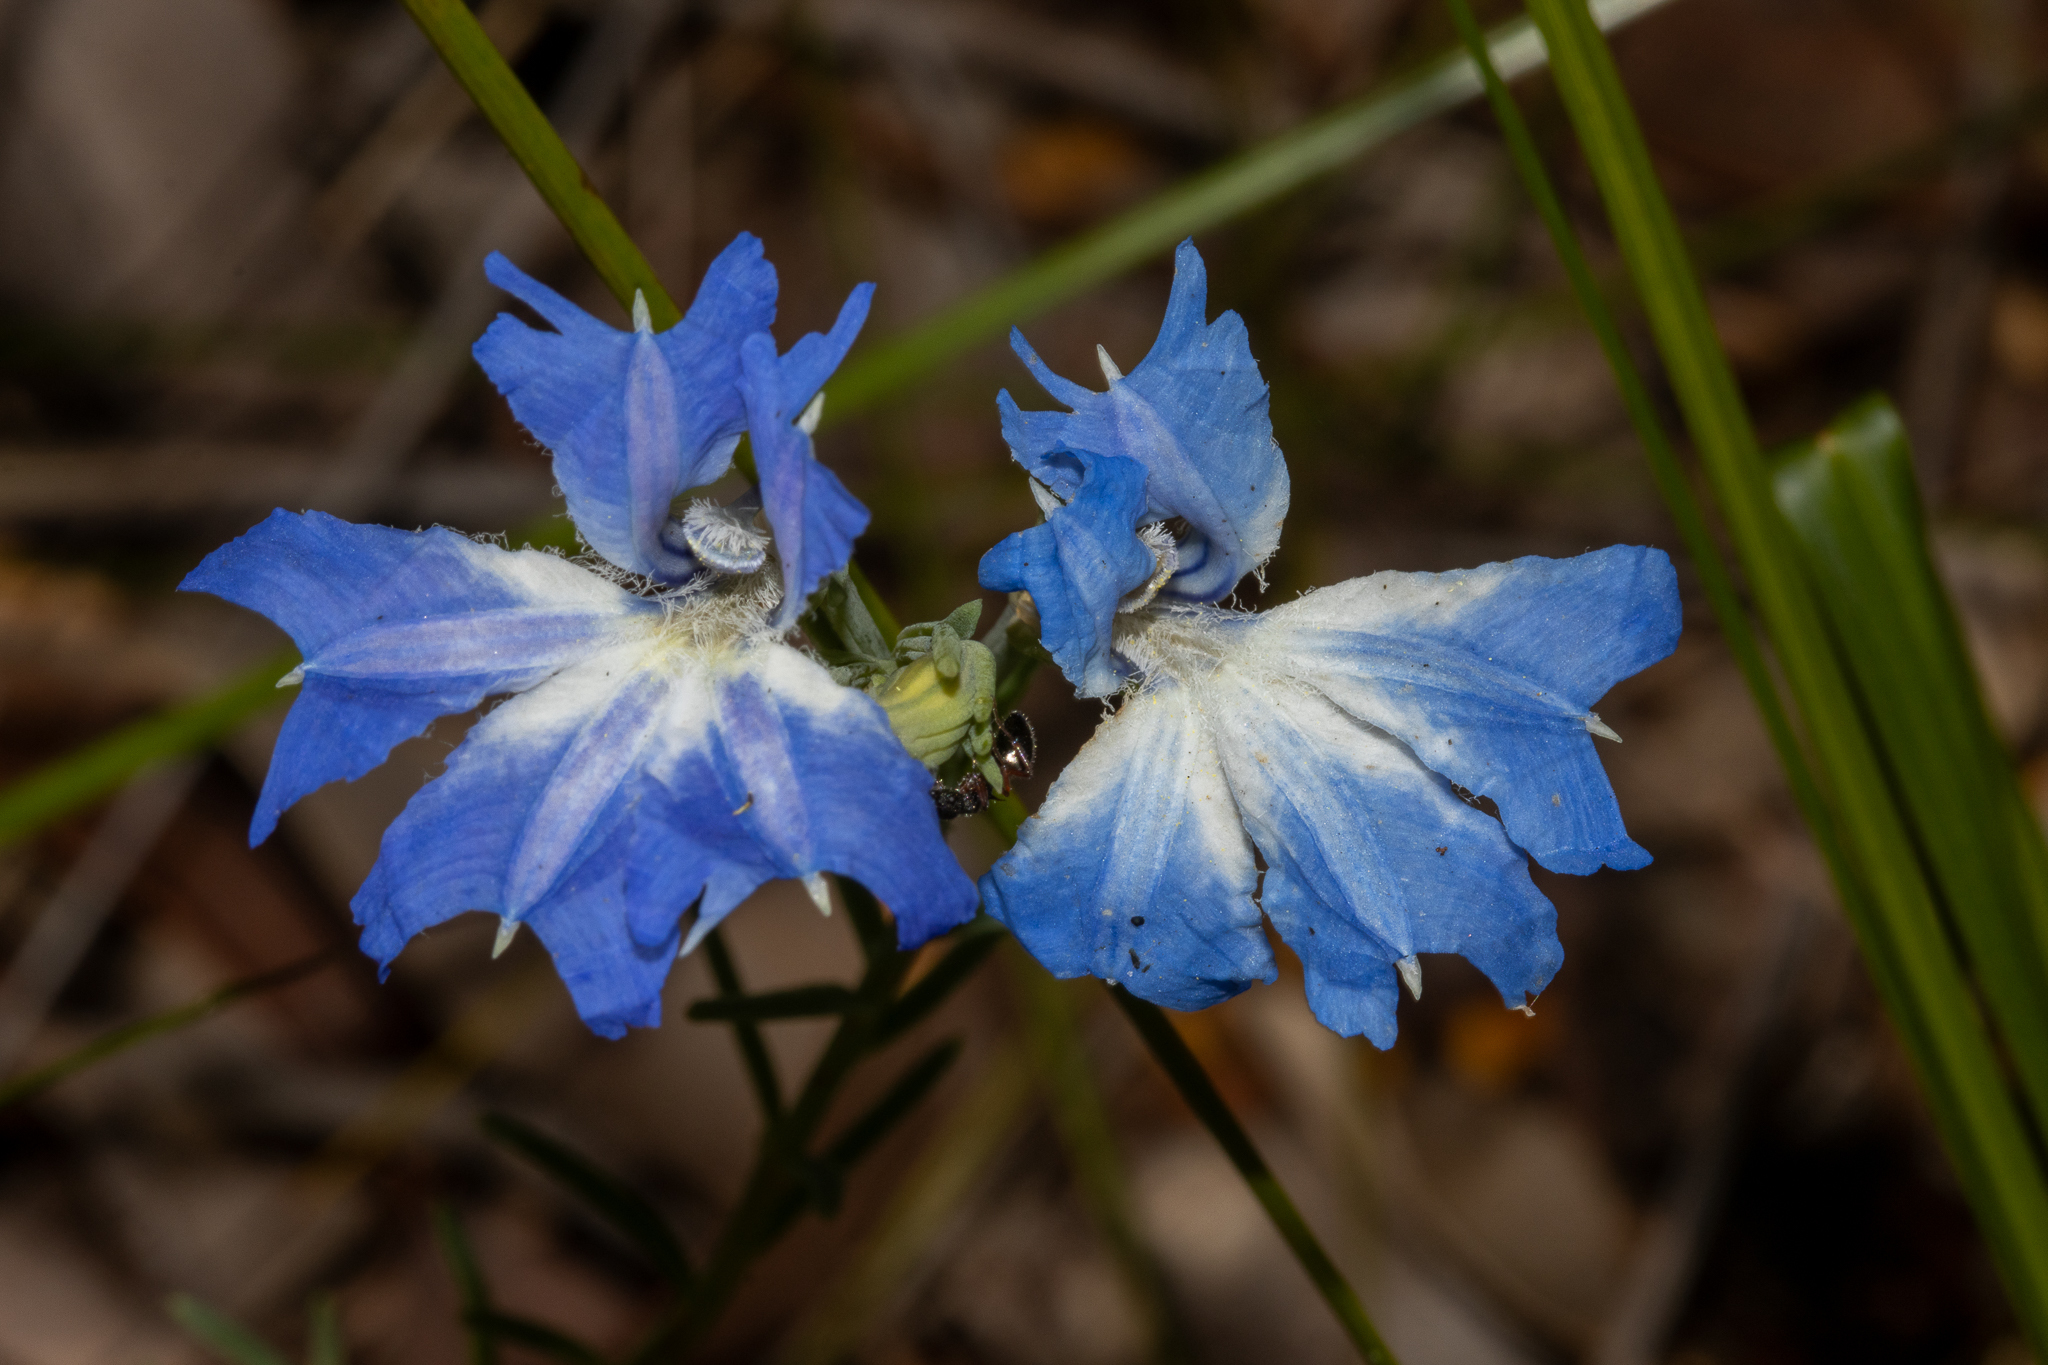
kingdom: Plantae
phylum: Tracheophyta
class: Magnoliopsida
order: Asterales
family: Goodeniaceae
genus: Lechenaultia
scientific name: Lechenaultia biloba
